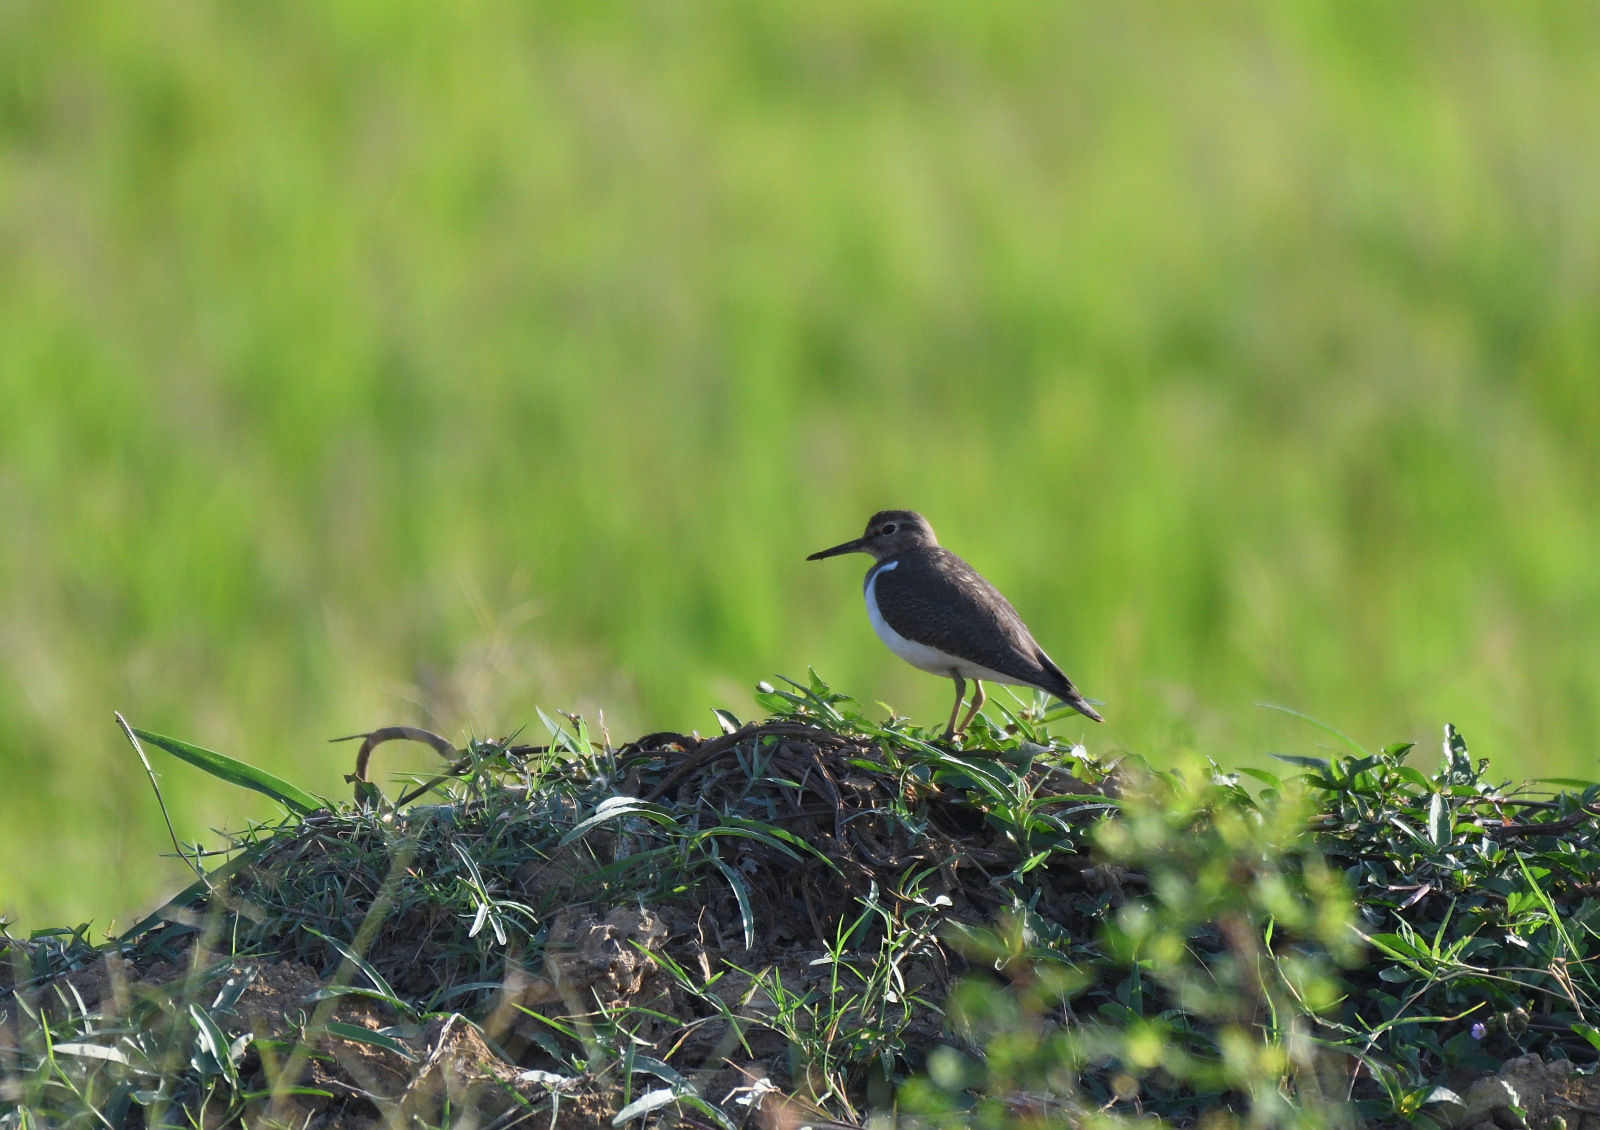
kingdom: Animalia
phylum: Chordata
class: Aves
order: Charadriiformes
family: Scolopacidae
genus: Actitis
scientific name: Actitis hypoleucos
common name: Common sandpiper
